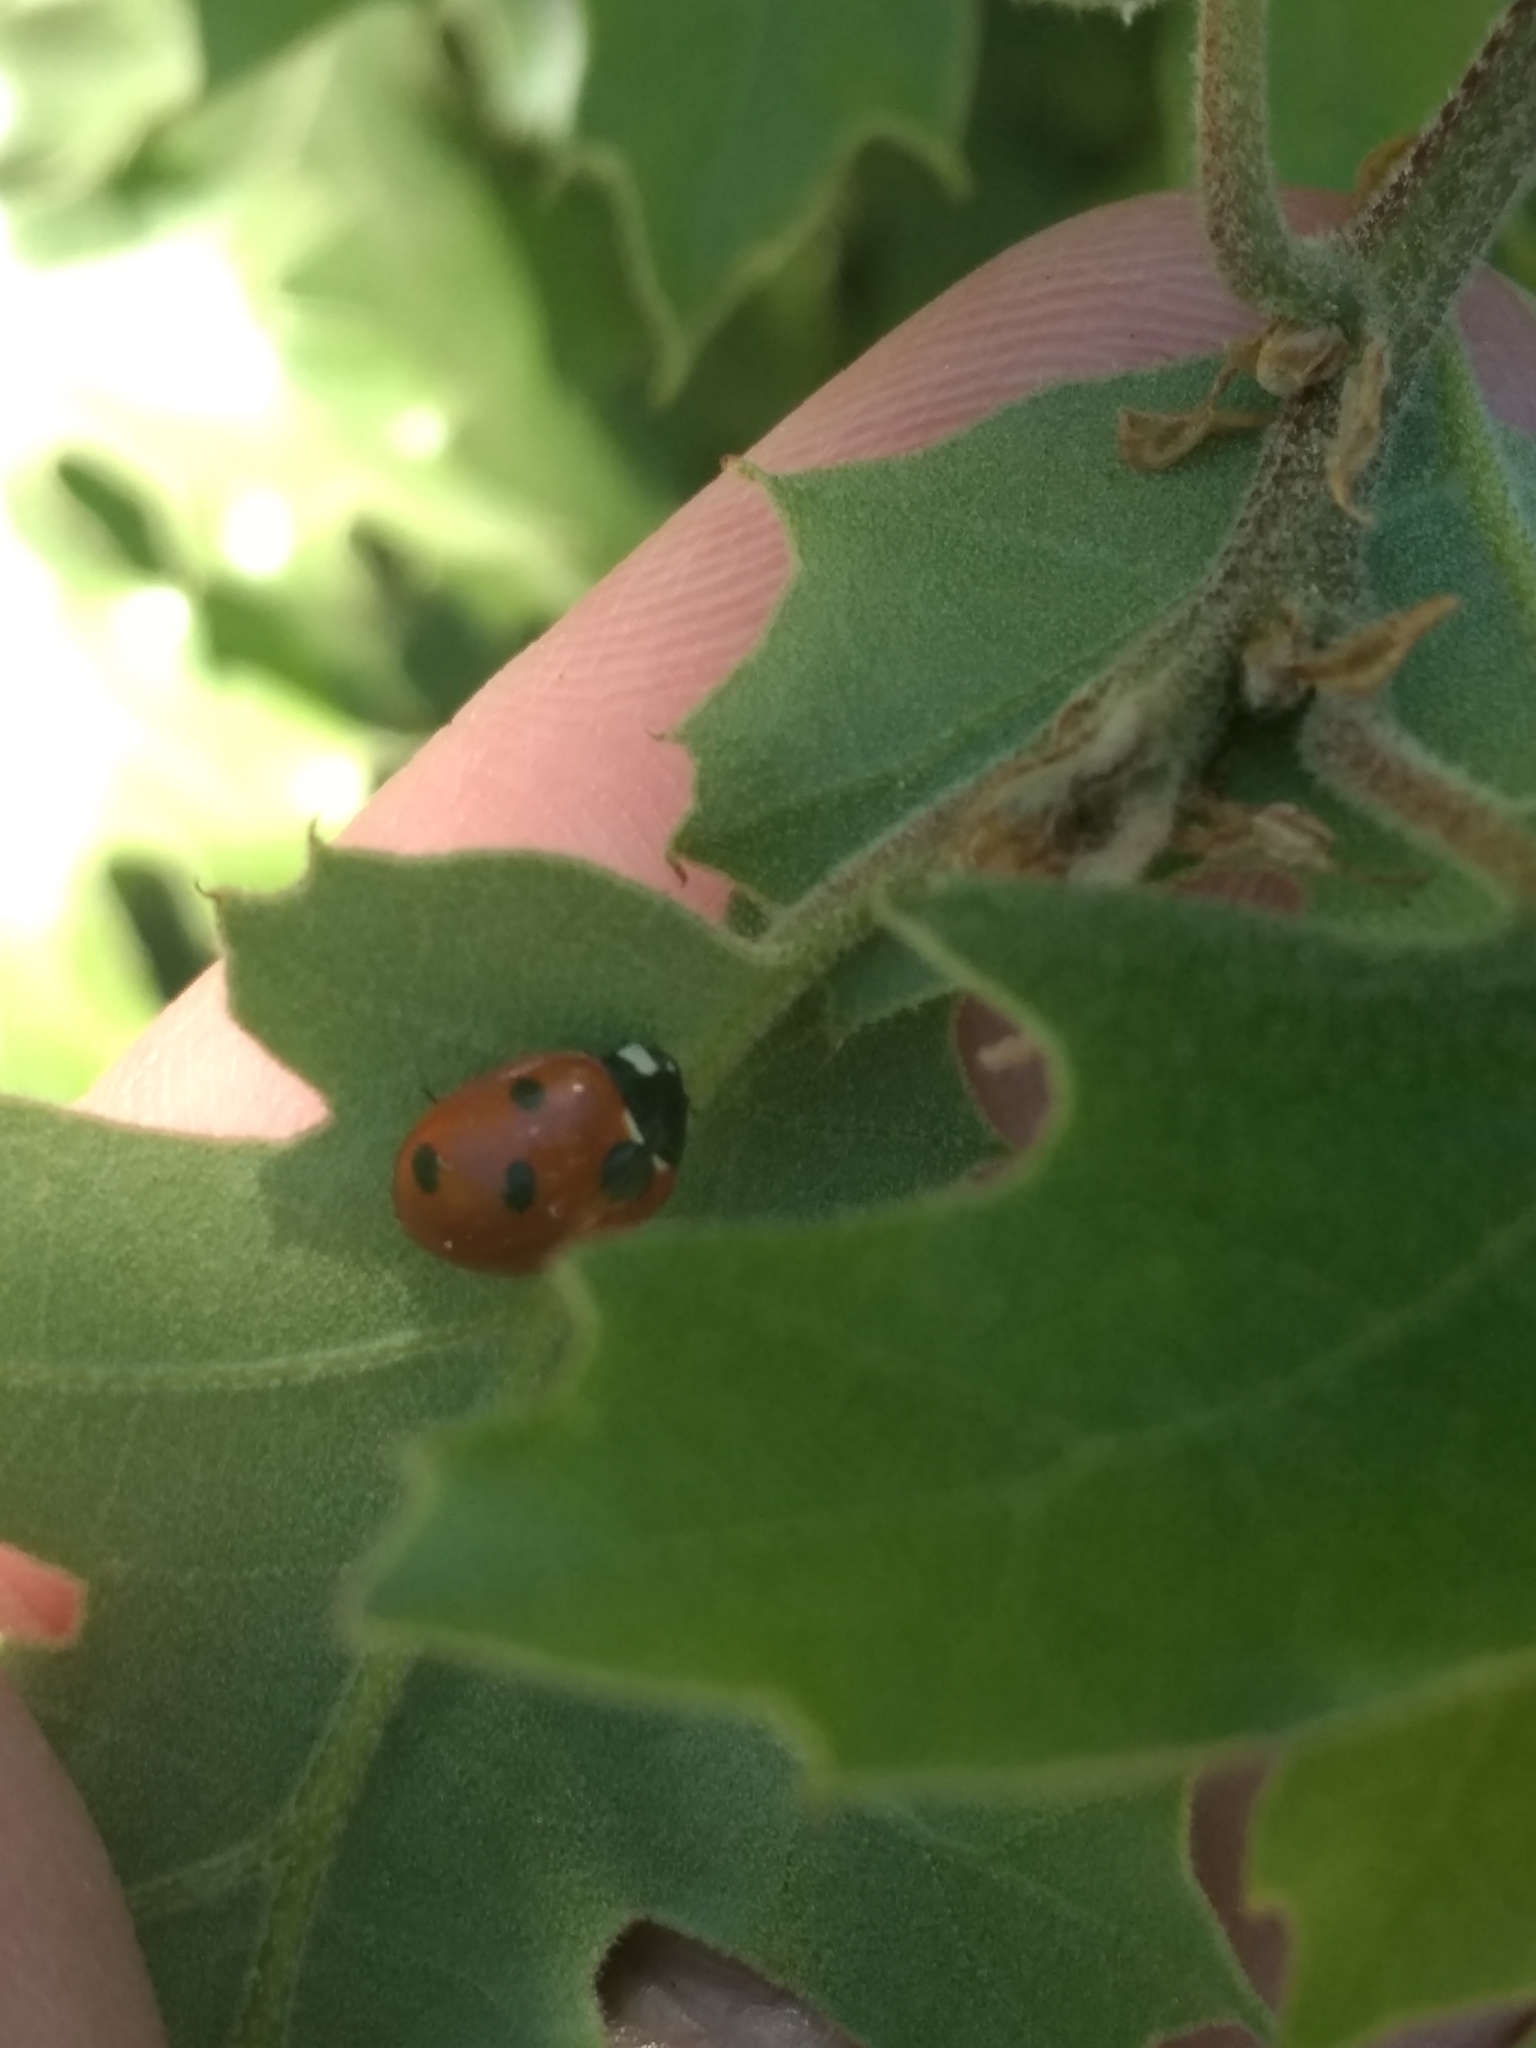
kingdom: Animalia
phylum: Arthropoda
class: Insecta
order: Coleoptera
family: Coccinellidae
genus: Coccinella
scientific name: Coccinella septempunctata
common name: Sevenspotted lady beetle
